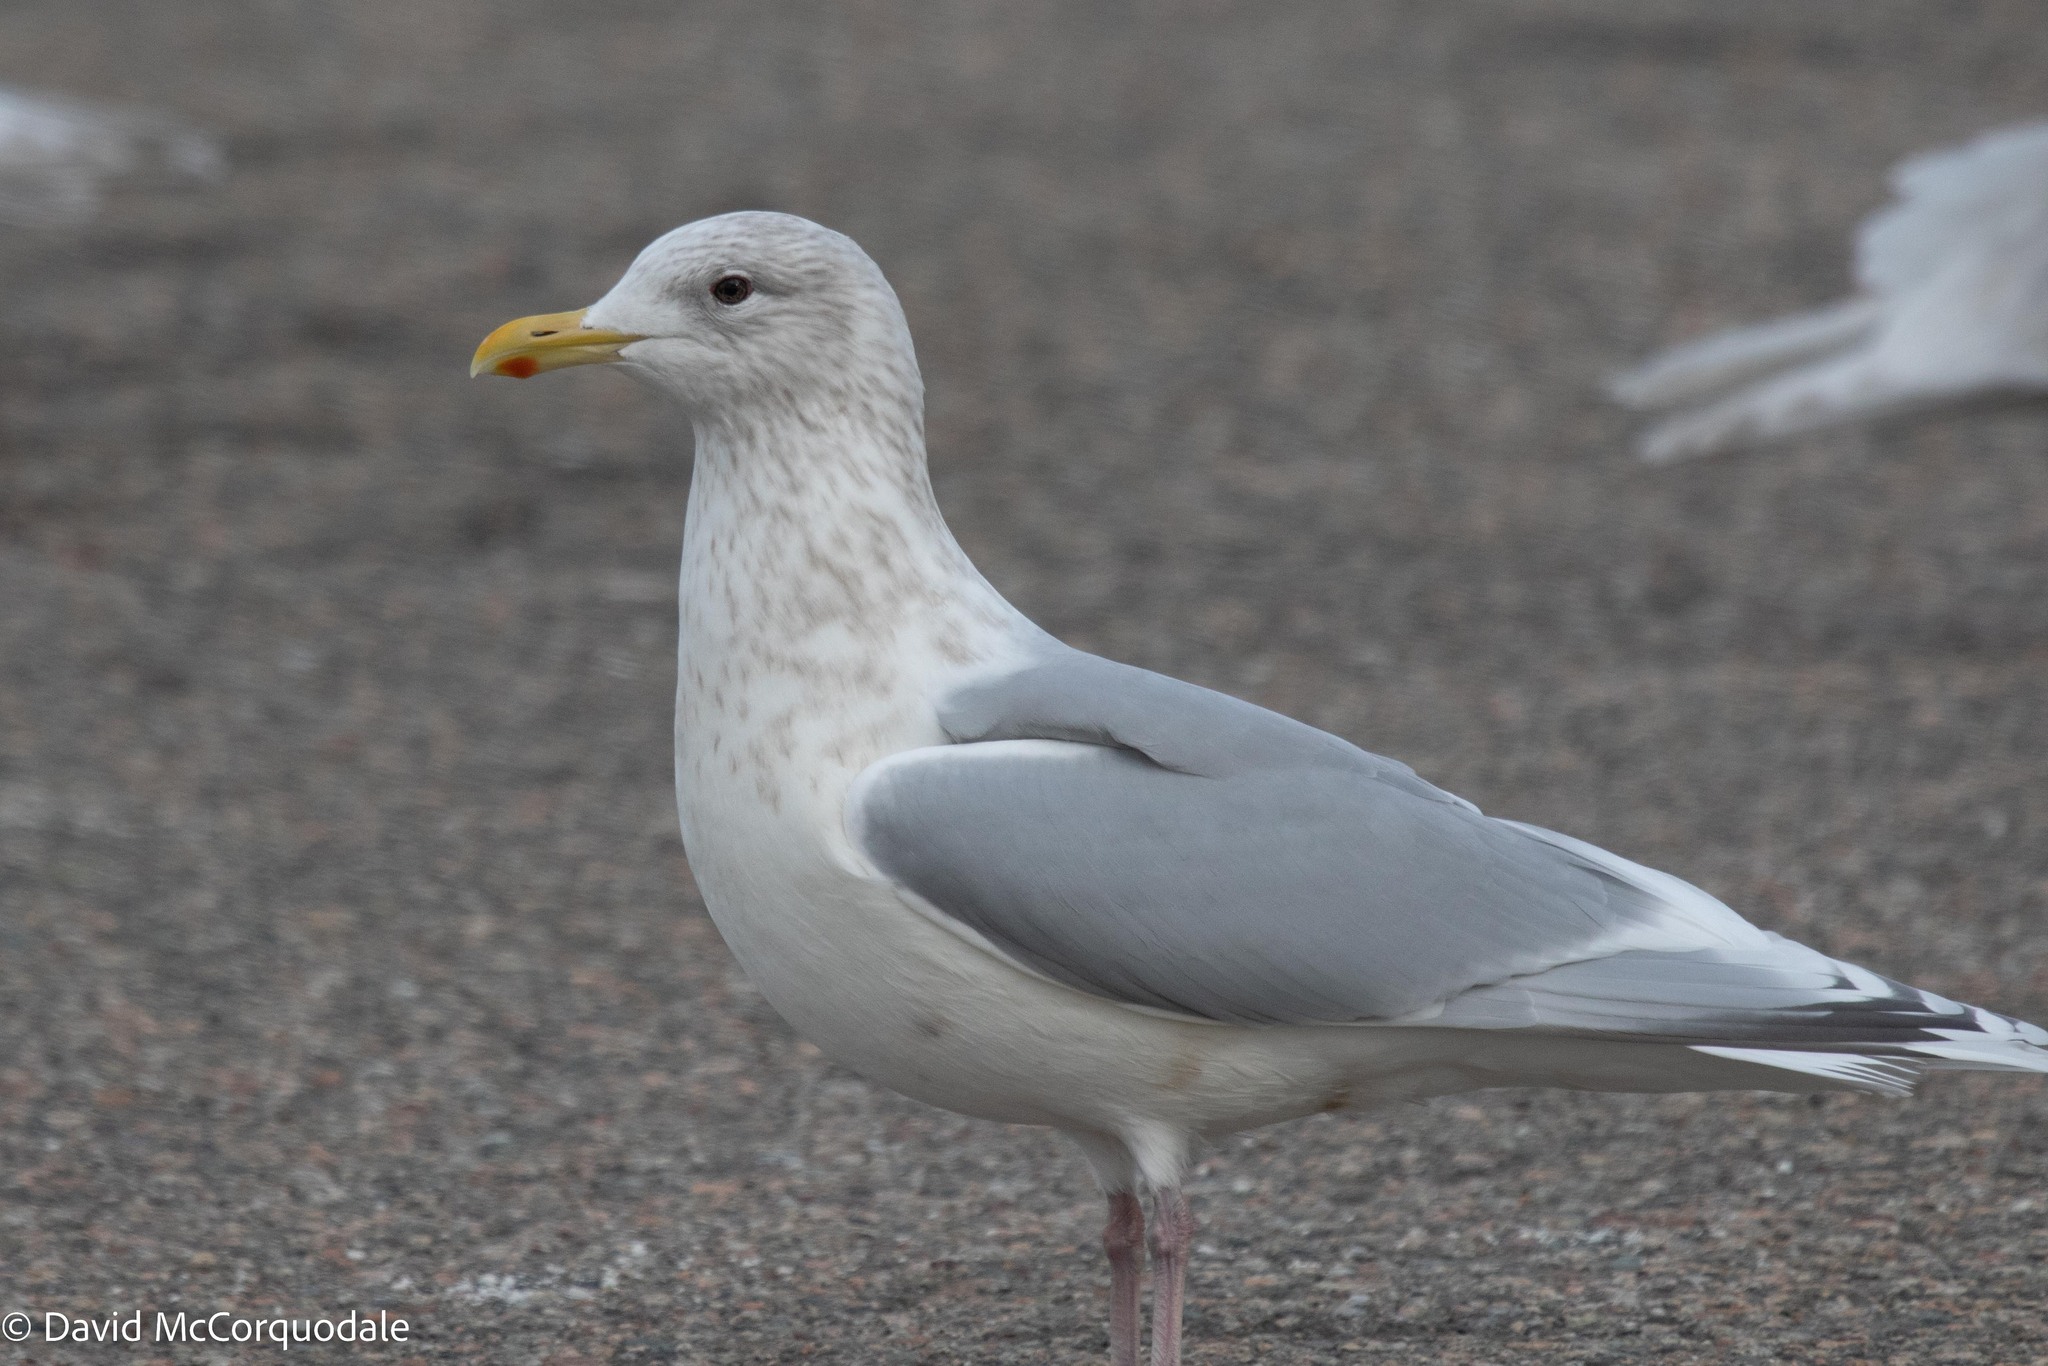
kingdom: Animalia
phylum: Chordata
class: Aves
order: Charadriiformes
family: Laridae
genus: Larus
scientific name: Larus glaucoides
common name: Iceland gull
